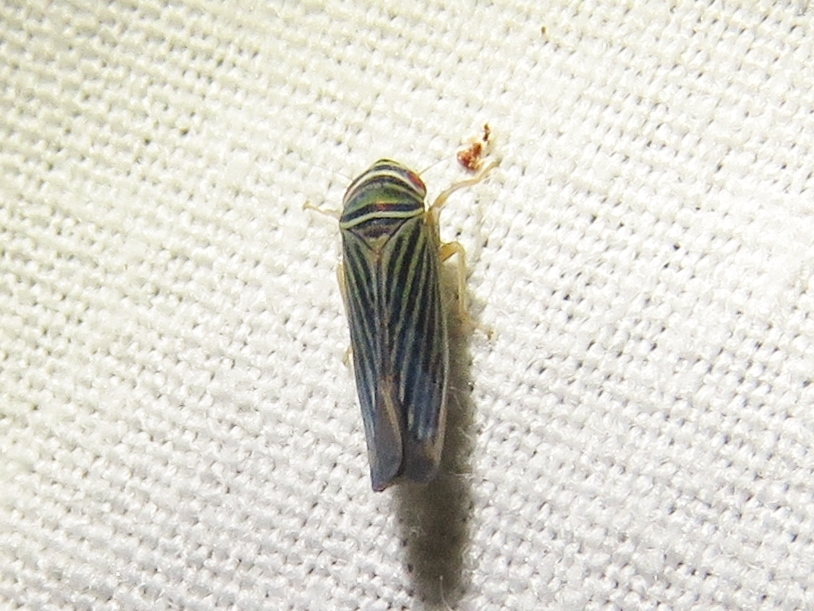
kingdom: Animalia
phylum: Arthropoda
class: Insecta
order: Hemiptera
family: Cicadellidae
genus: Tylozygus
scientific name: Tylozygus bifidus
